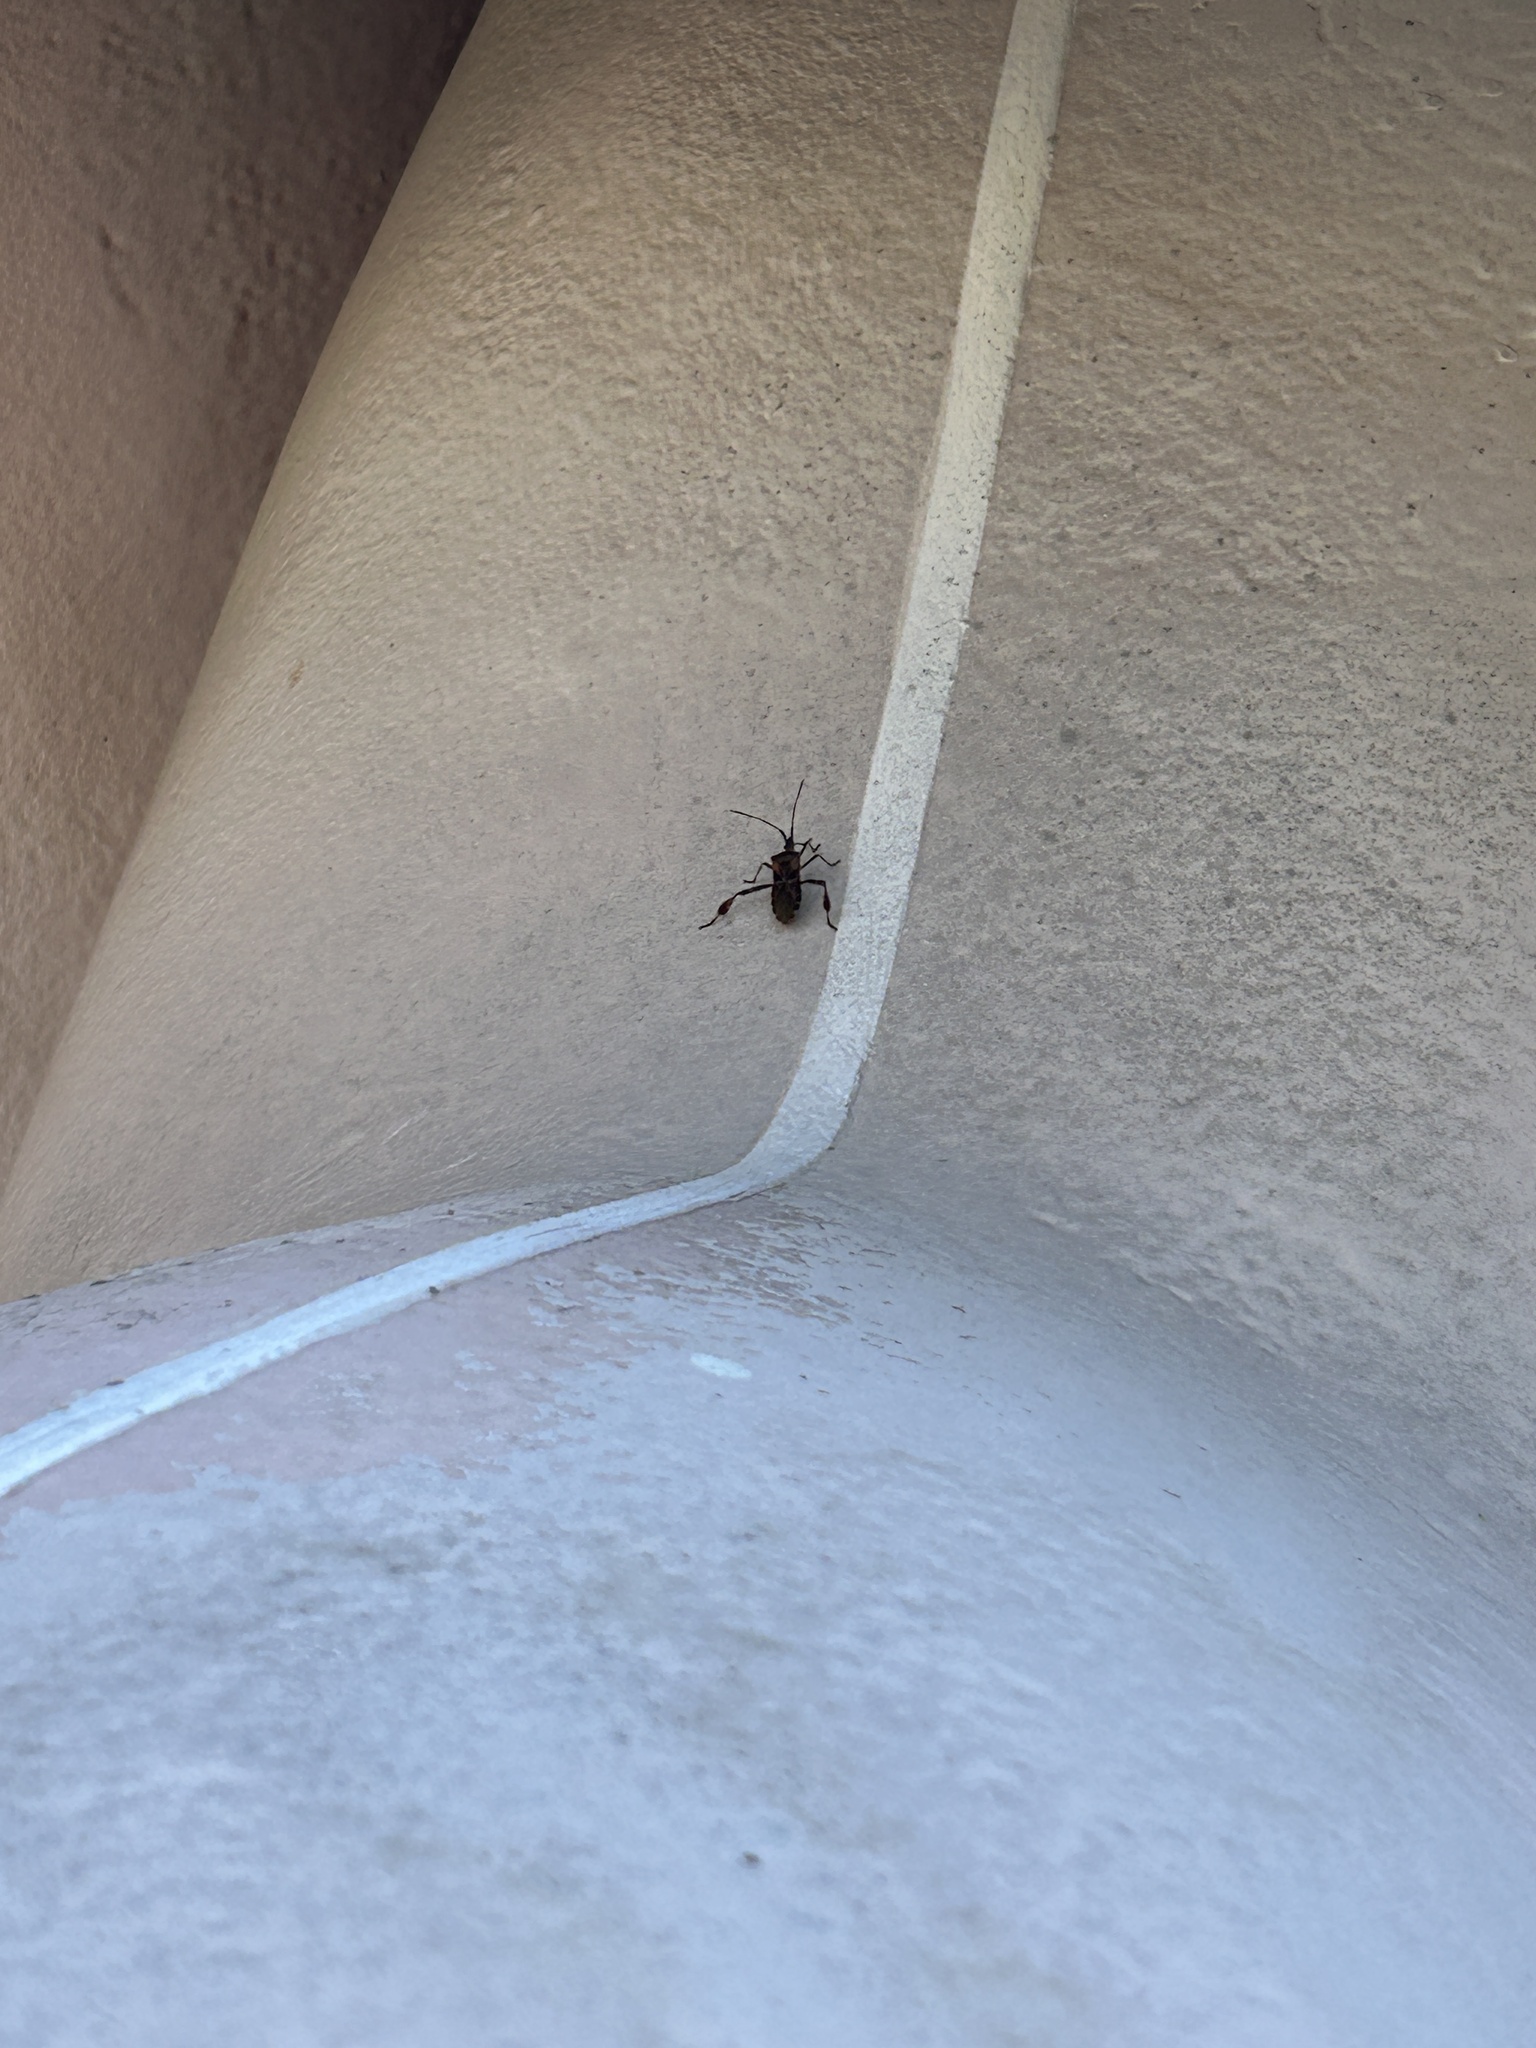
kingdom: Animalia
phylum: Arthropoda
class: Insecta
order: Hemiptera
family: Coreidae
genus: Leptoglossus
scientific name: Leptoglossus occidentalis
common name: Western conifer-seed bug
